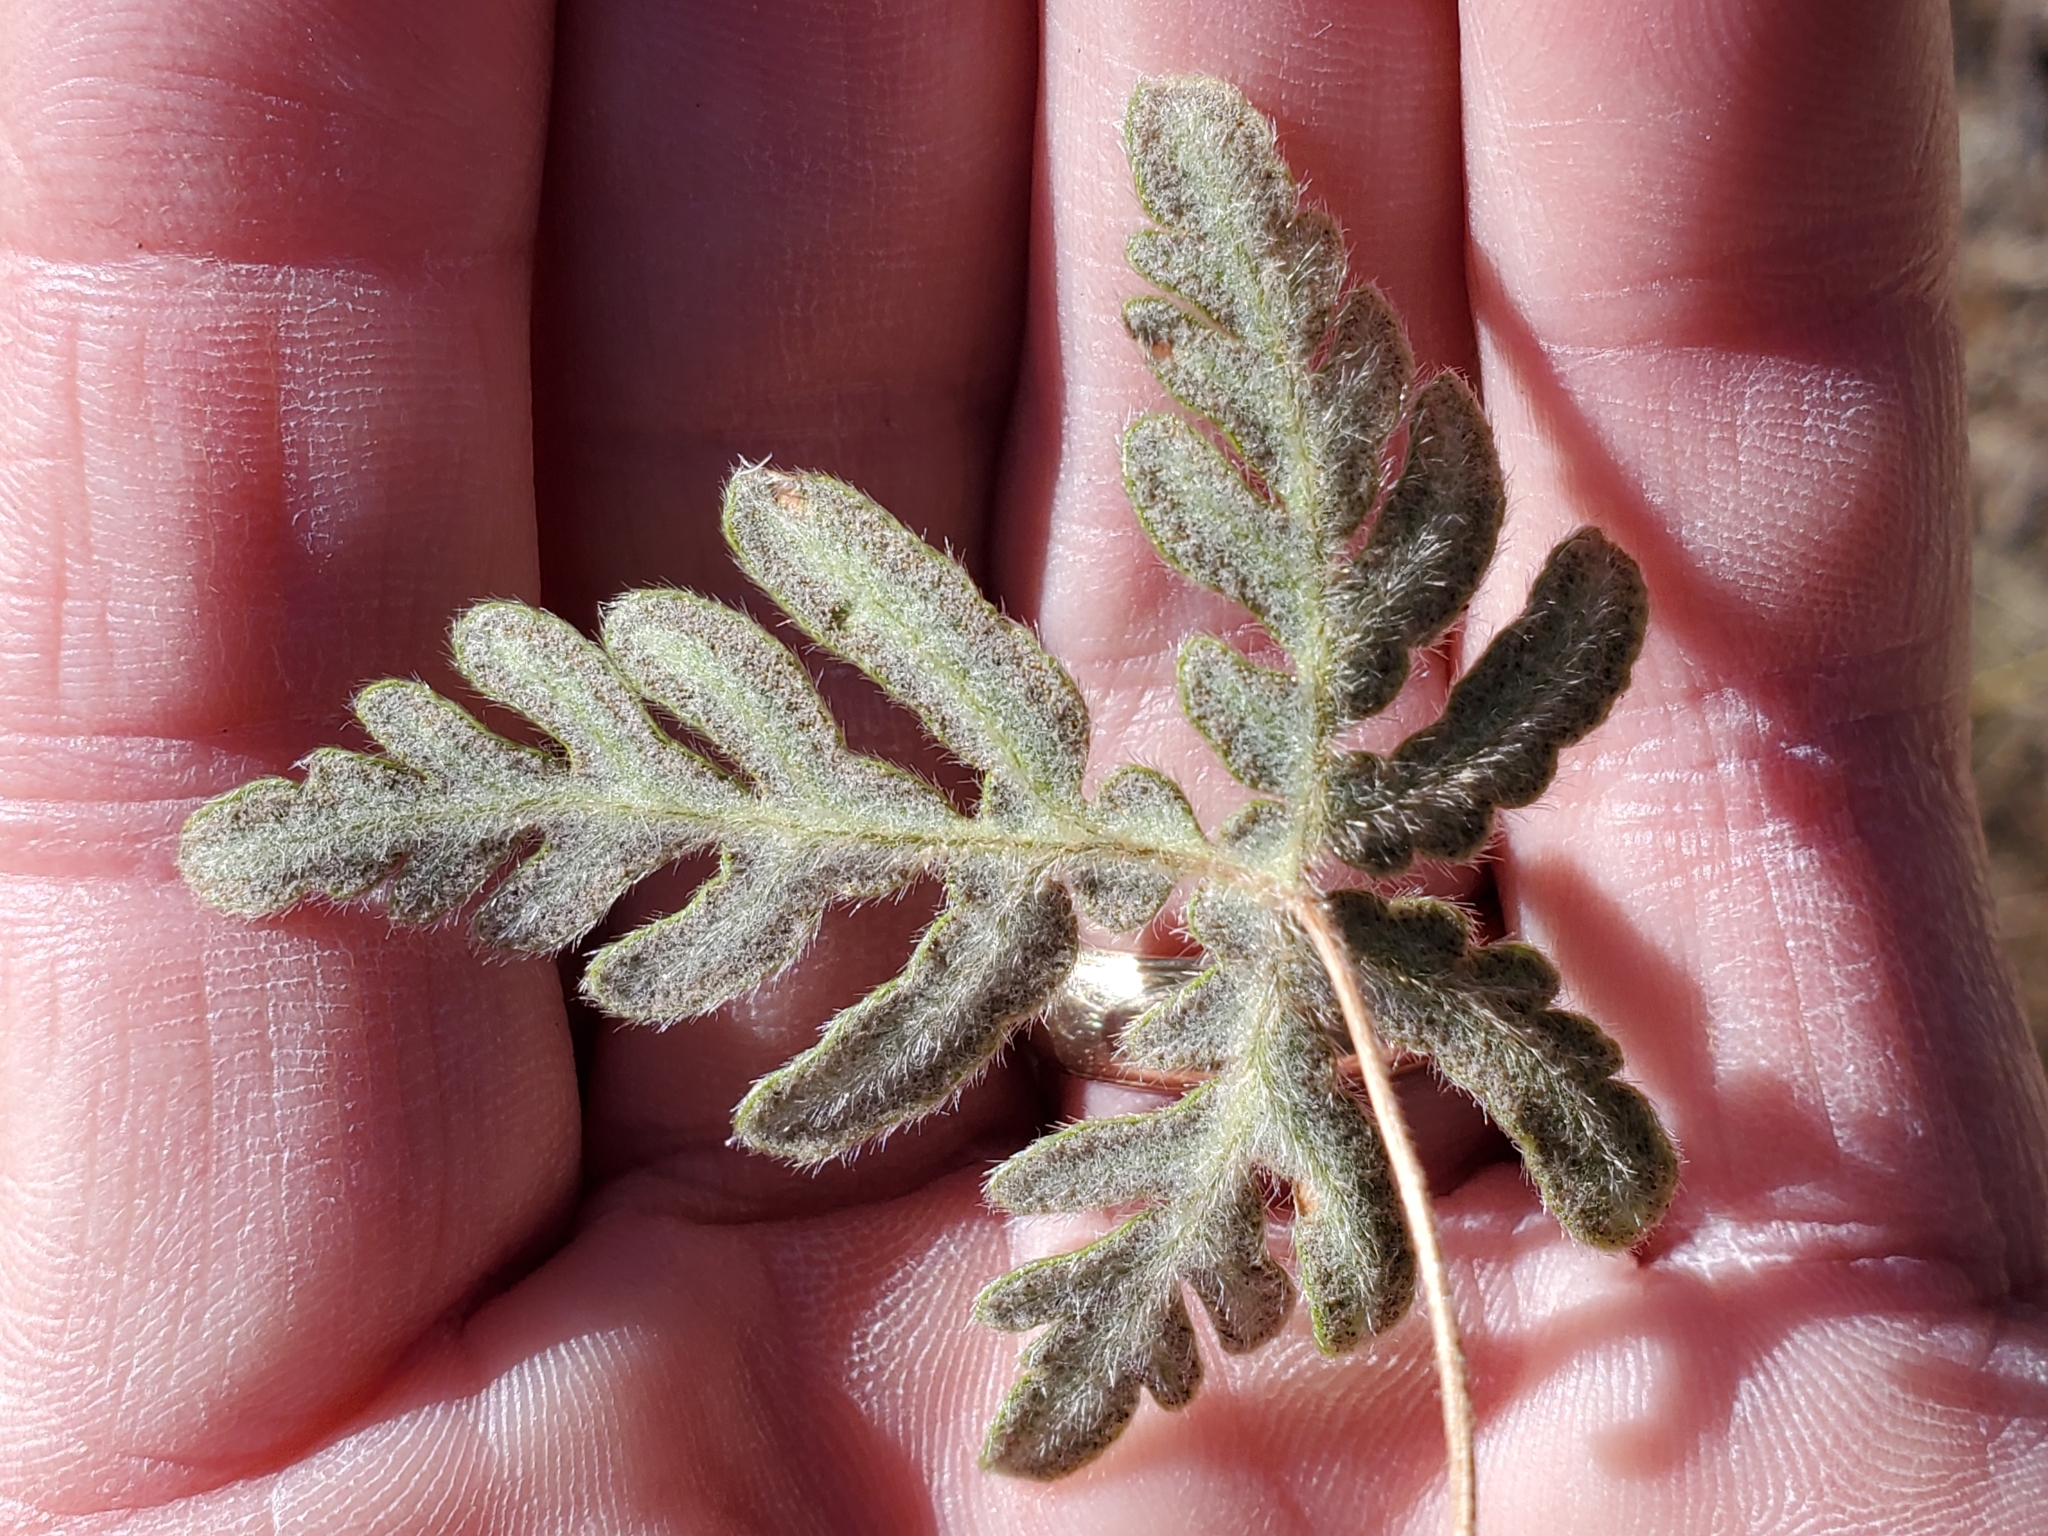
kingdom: Plantae
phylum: Tracheophyta
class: Polypodiopsida
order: Polypodiales
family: Pteridaceae
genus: Bommeria
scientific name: Bommeria hispida
